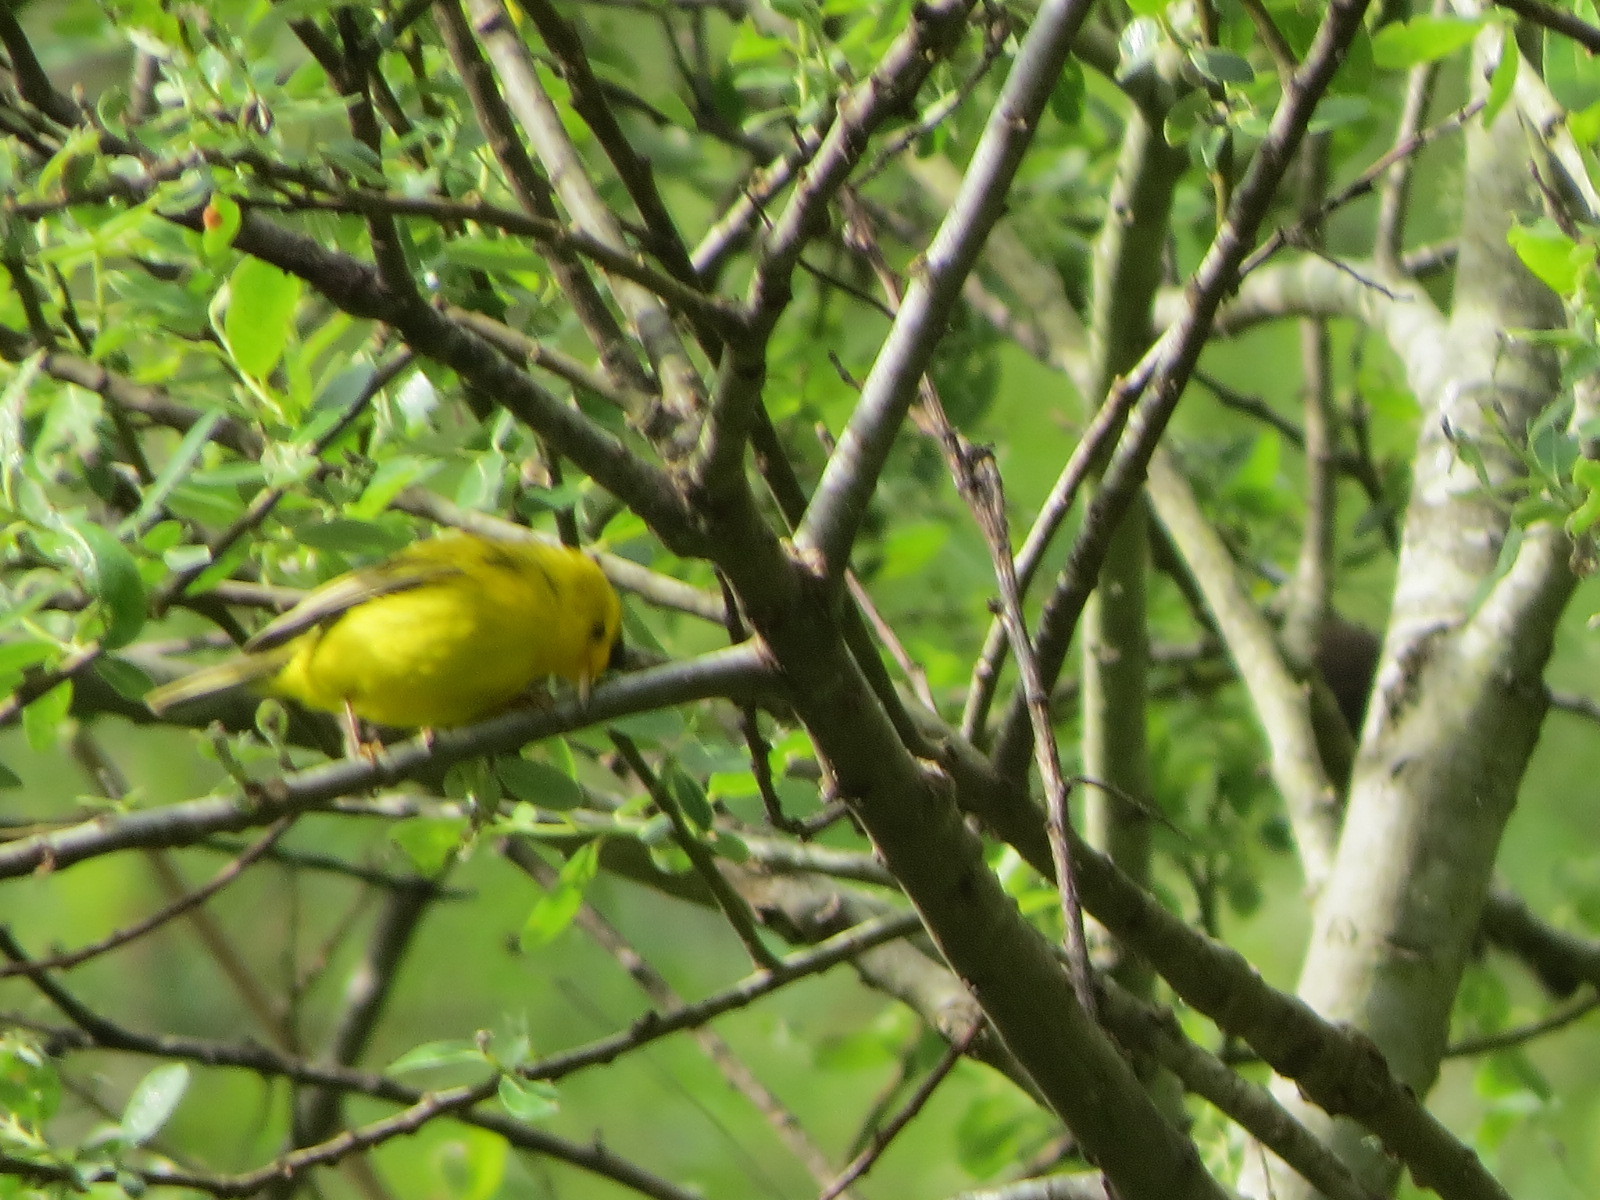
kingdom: Animalia
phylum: Chordata
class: Aves
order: Passeriformes
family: Parulidae
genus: Cardellina
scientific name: Cardellina pusilla
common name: Wilson's warbler
